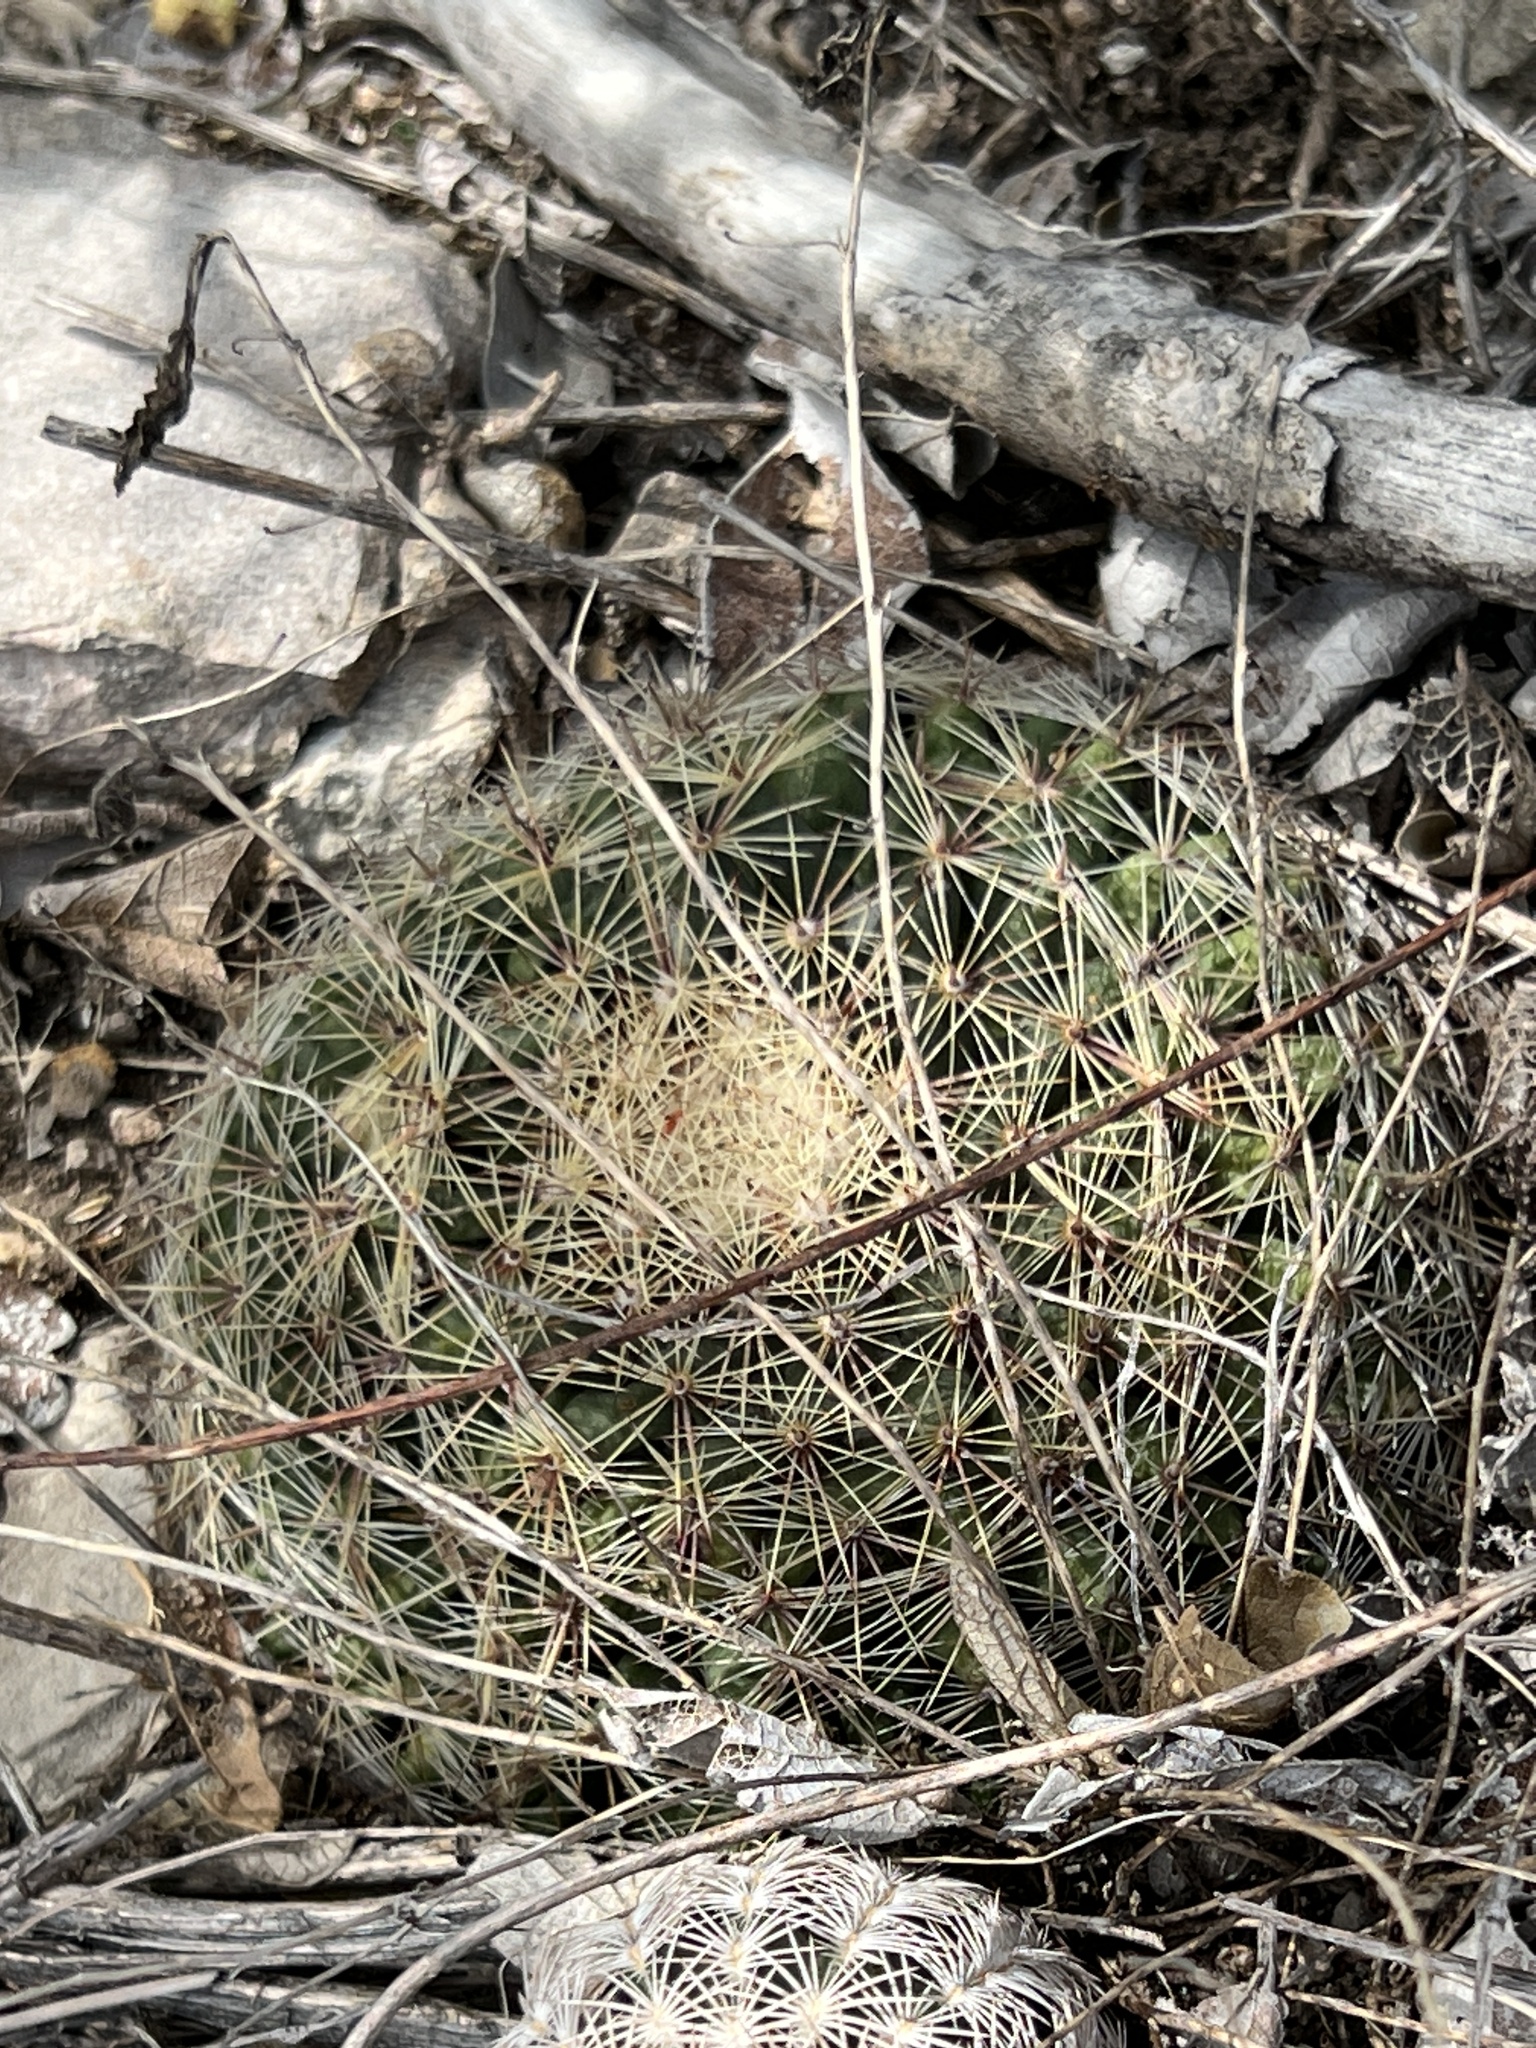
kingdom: Plantae
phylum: Tracheophyta
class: Magnoliopsida
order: Caryophyllales
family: Cactaceae
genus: Mammillaria
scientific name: Mammillaria heyderi
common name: Little nipple cactus
